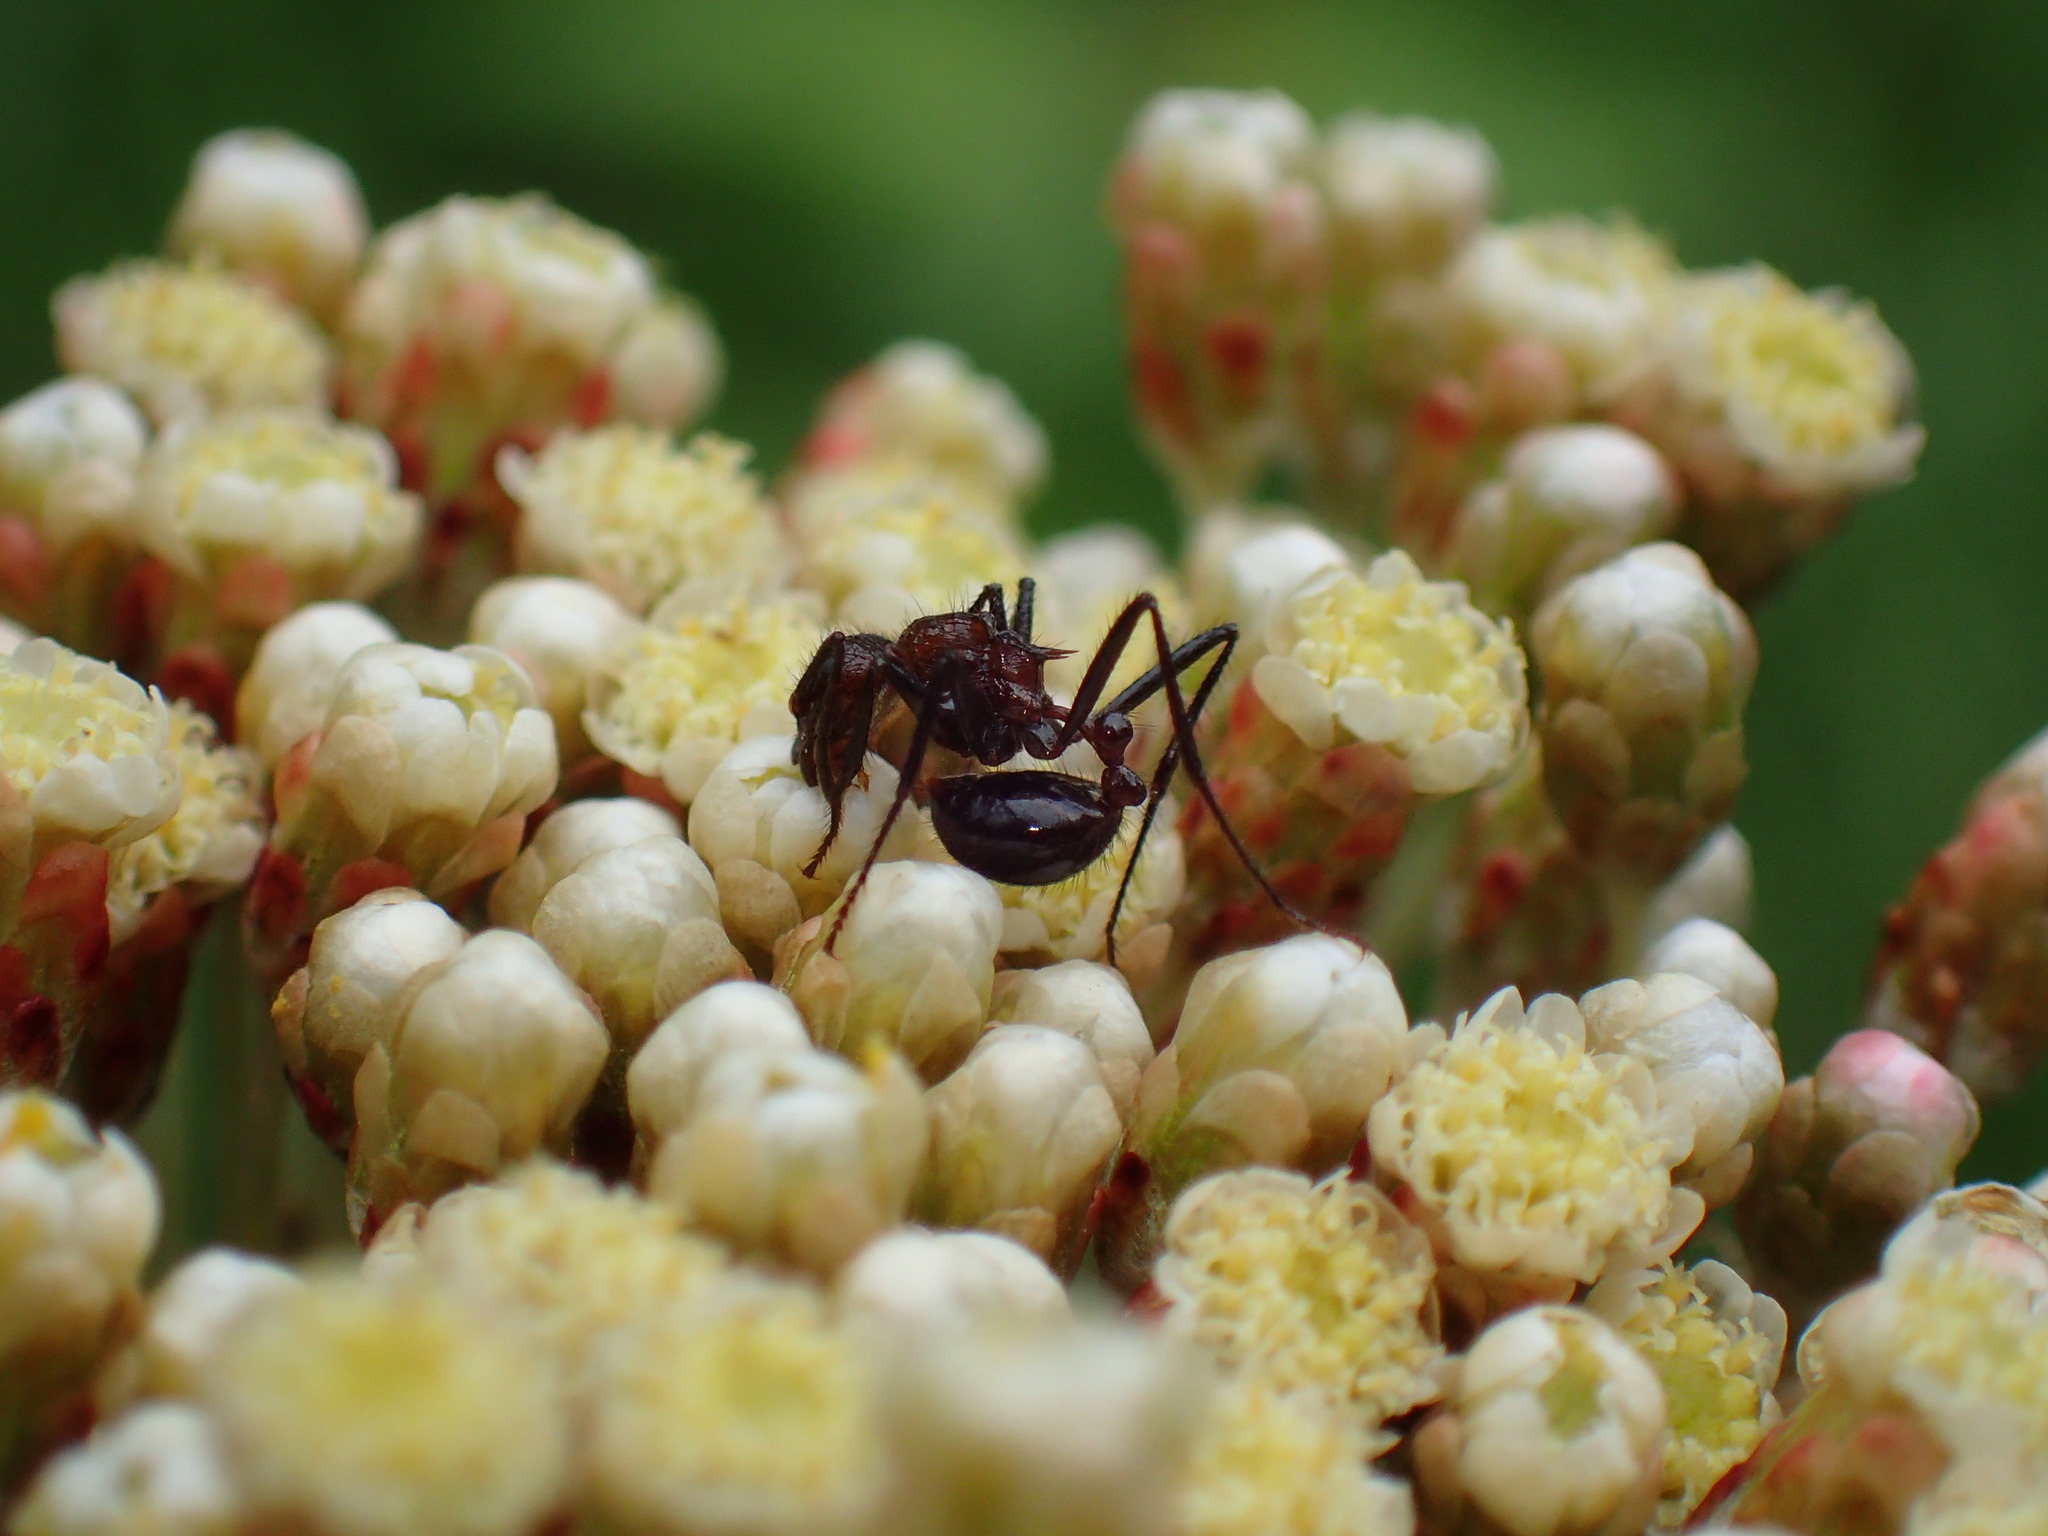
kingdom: Animalia
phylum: Arthropoda
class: Insecta
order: Hymenoptera
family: Formicidae
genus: Myrmicaria
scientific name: Myrmicaria natalensis
